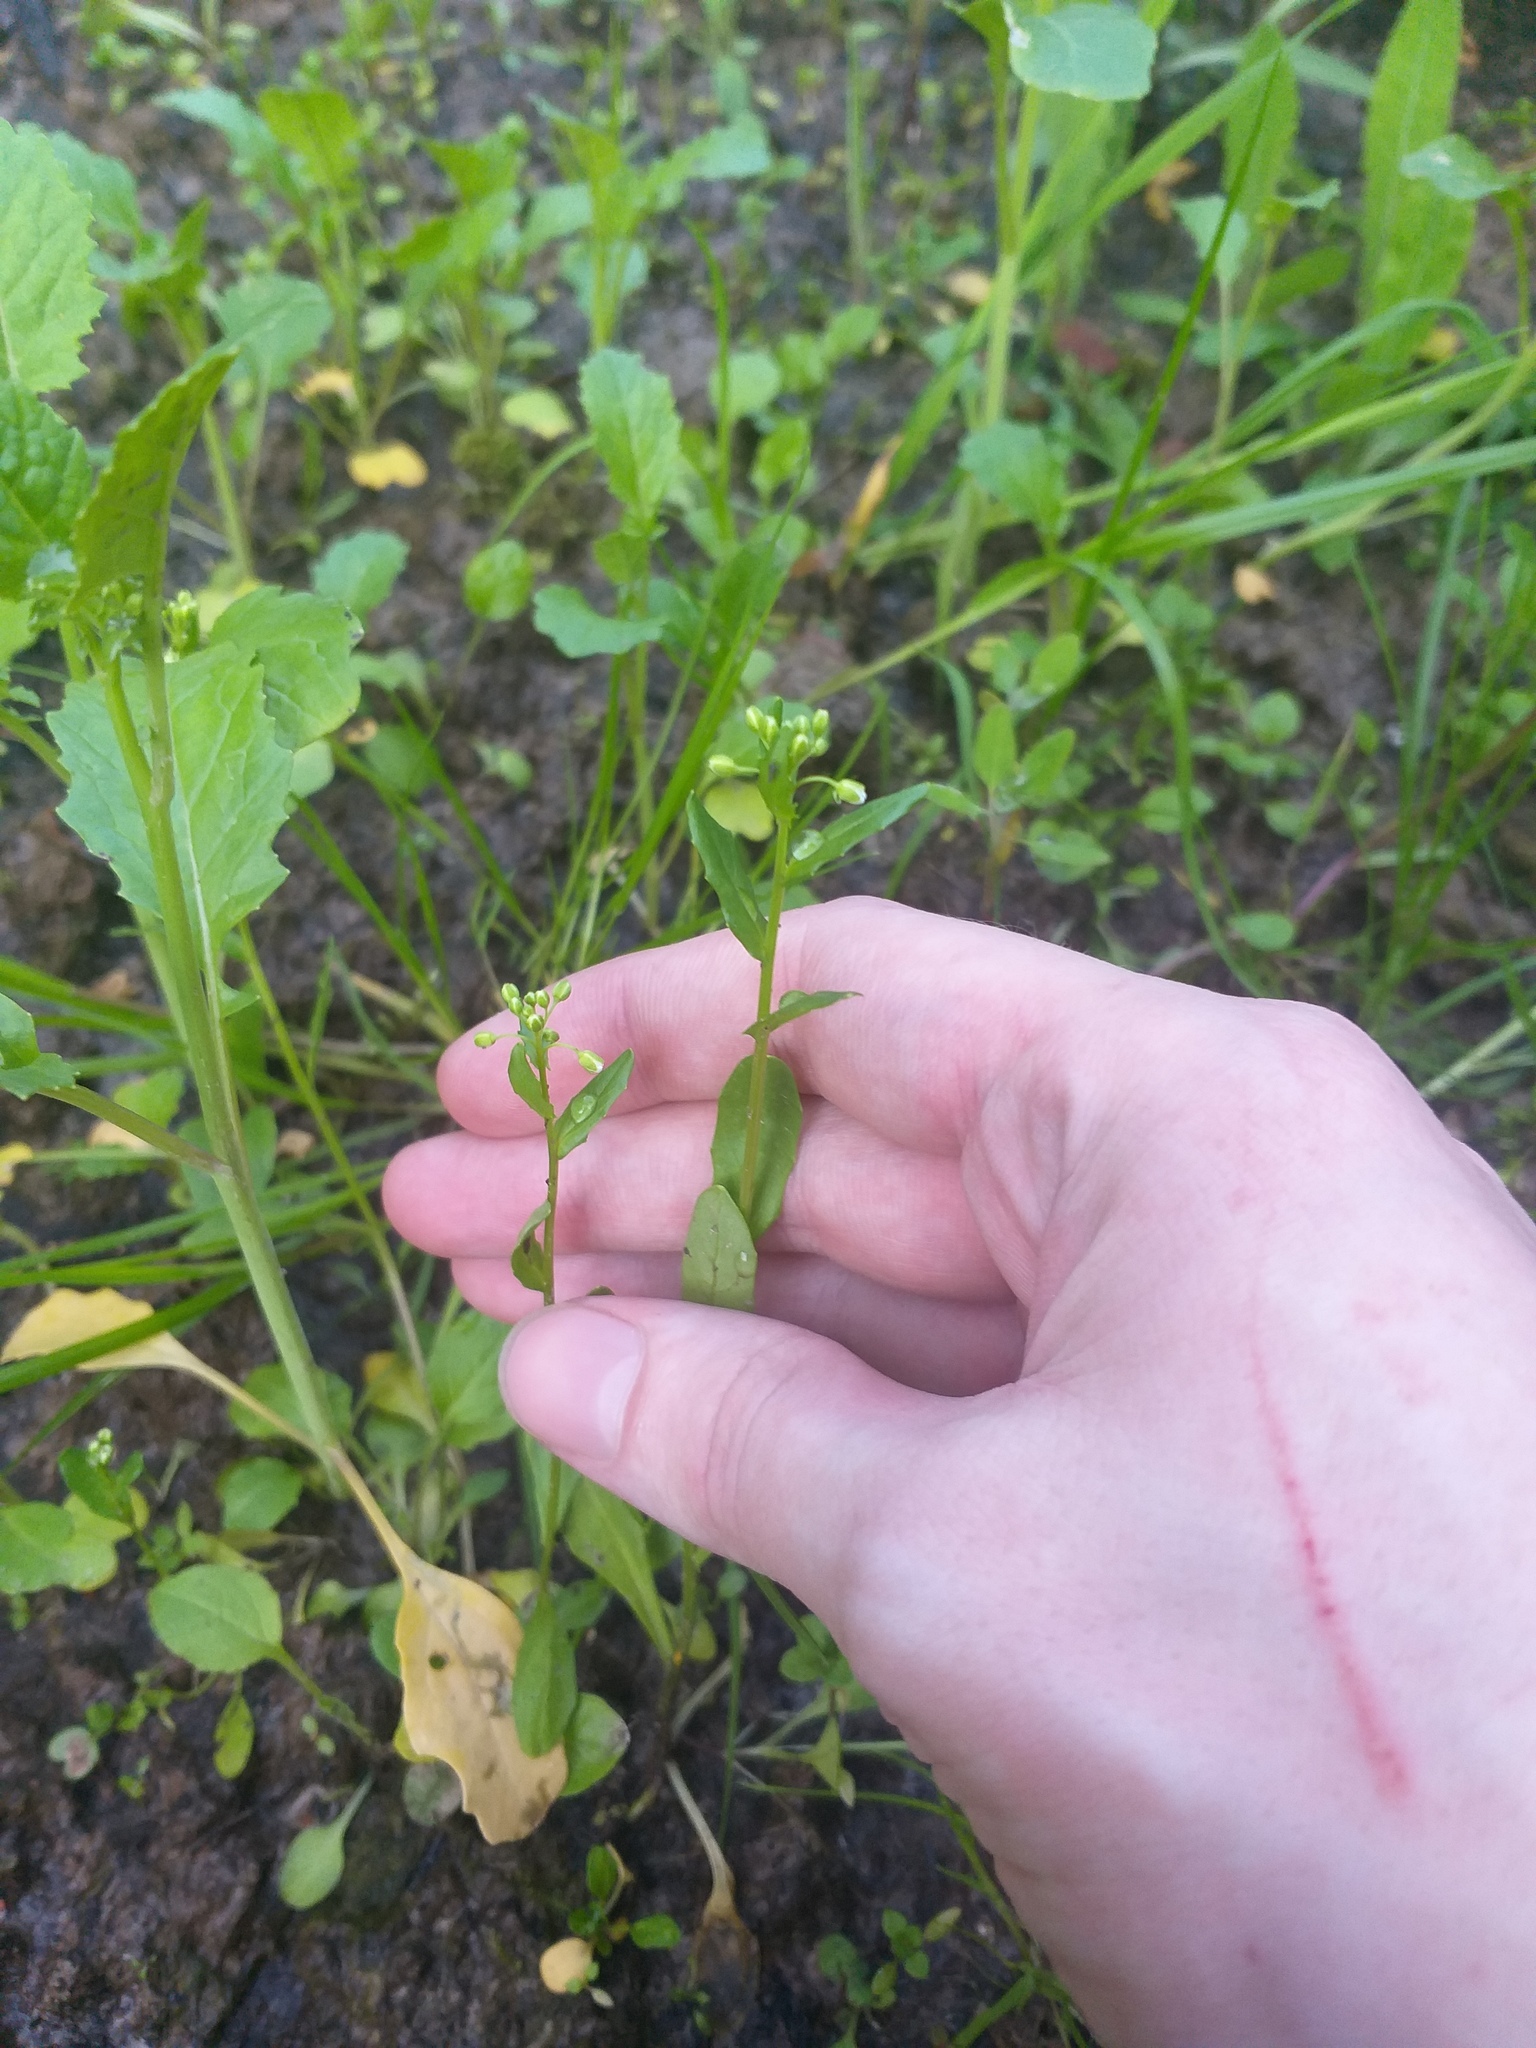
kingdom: Plantae
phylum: Tracheophyta
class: Magnoliopsida
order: Brassicales
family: Brassicaceae
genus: Thlaspi
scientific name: Thlaspi arvense
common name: Field pennycress
